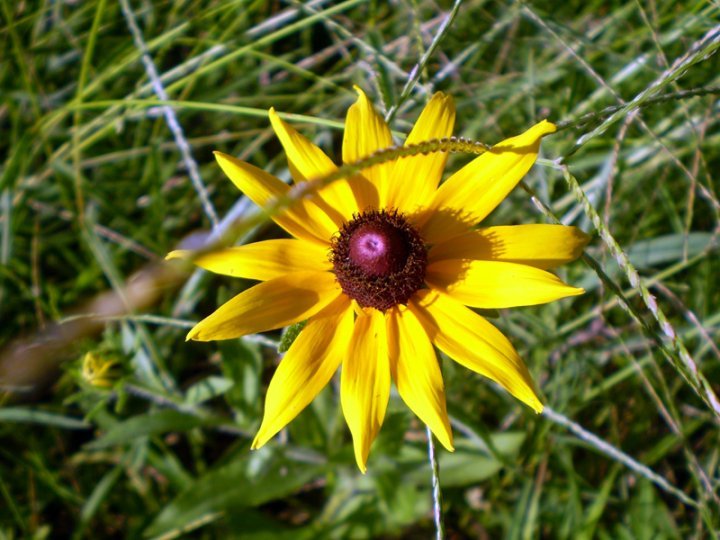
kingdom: Plantae
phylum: Tracheophyta
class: Magnoliopsida
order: Asterales
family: Asteraceae
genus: Rudbeckia
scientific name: Rudbeckia hirta
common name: Black-eyed-susan
